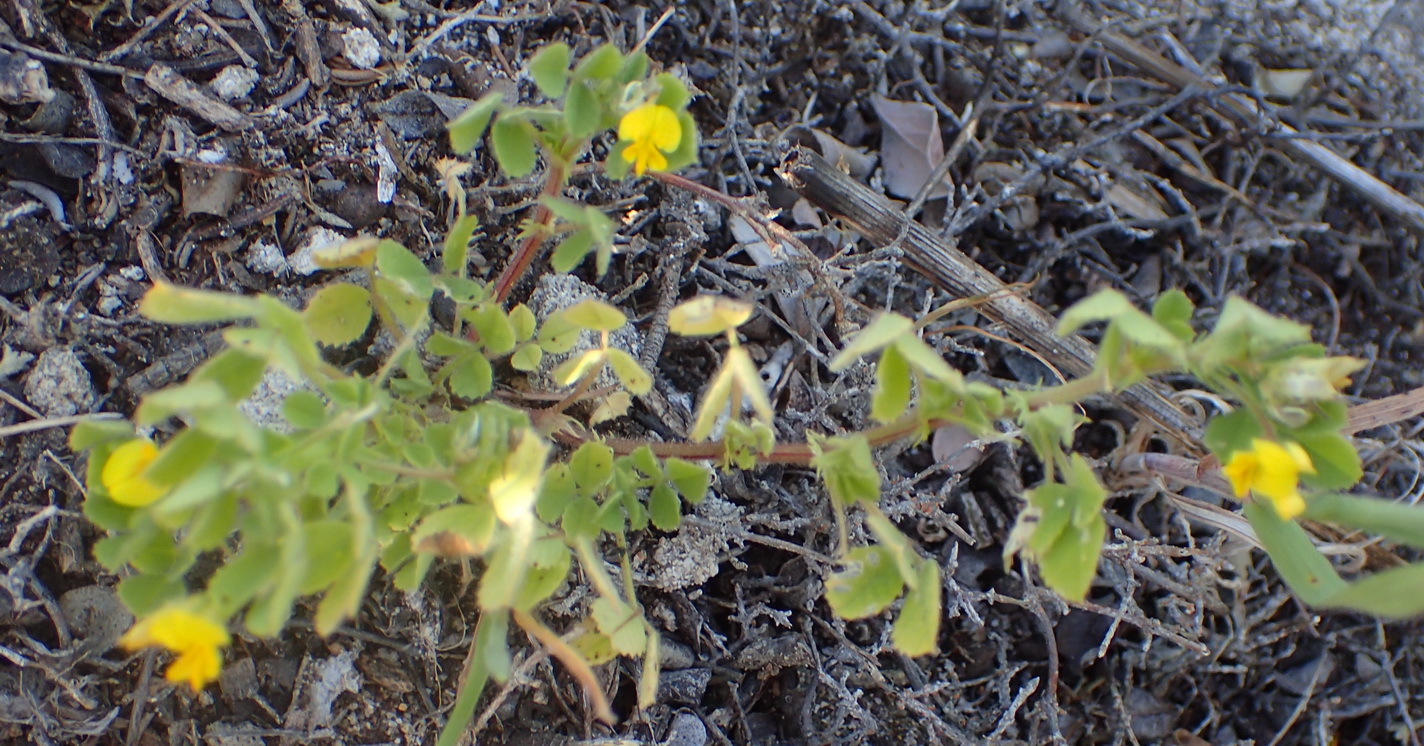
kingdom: Plantae
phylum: Tracheophyta
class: Magnoliopsida
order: Fabales
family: Fabaceae
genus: Medicago
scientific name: Medicago polymorpha
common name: Burclover
